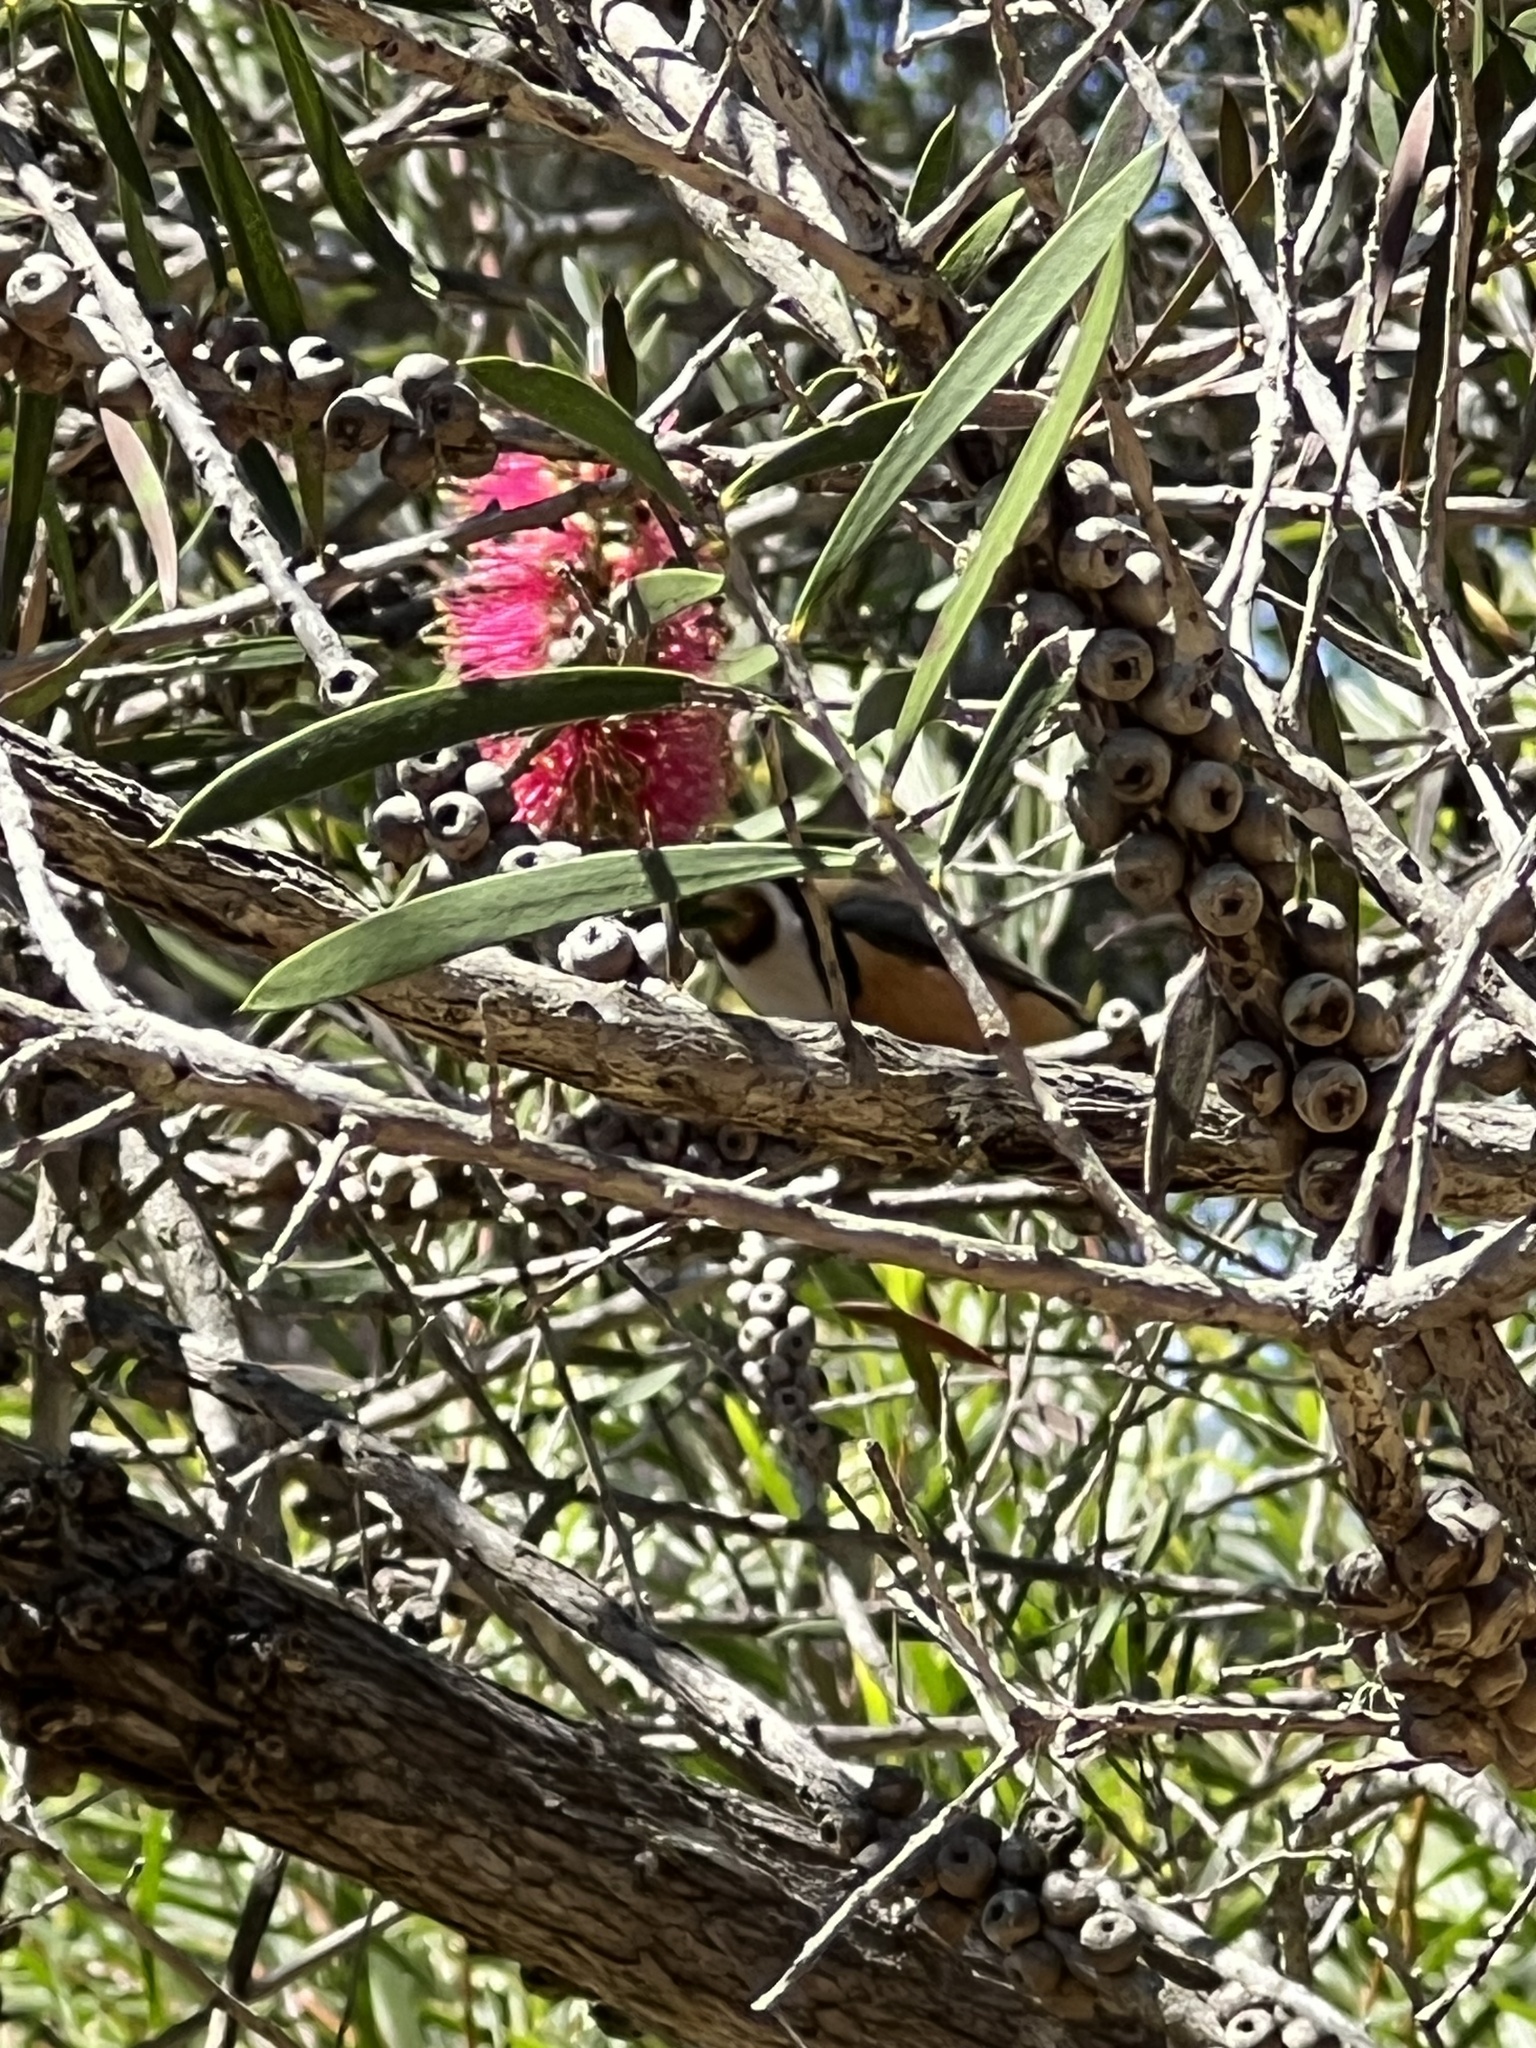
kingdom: Animalia
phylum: Chordata
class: Aves
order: Passeriformes
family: Meliphagidae
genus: Acanthorhynchus
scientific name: Acanthorhynchus tenuirostris
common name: Eastern spinebill
